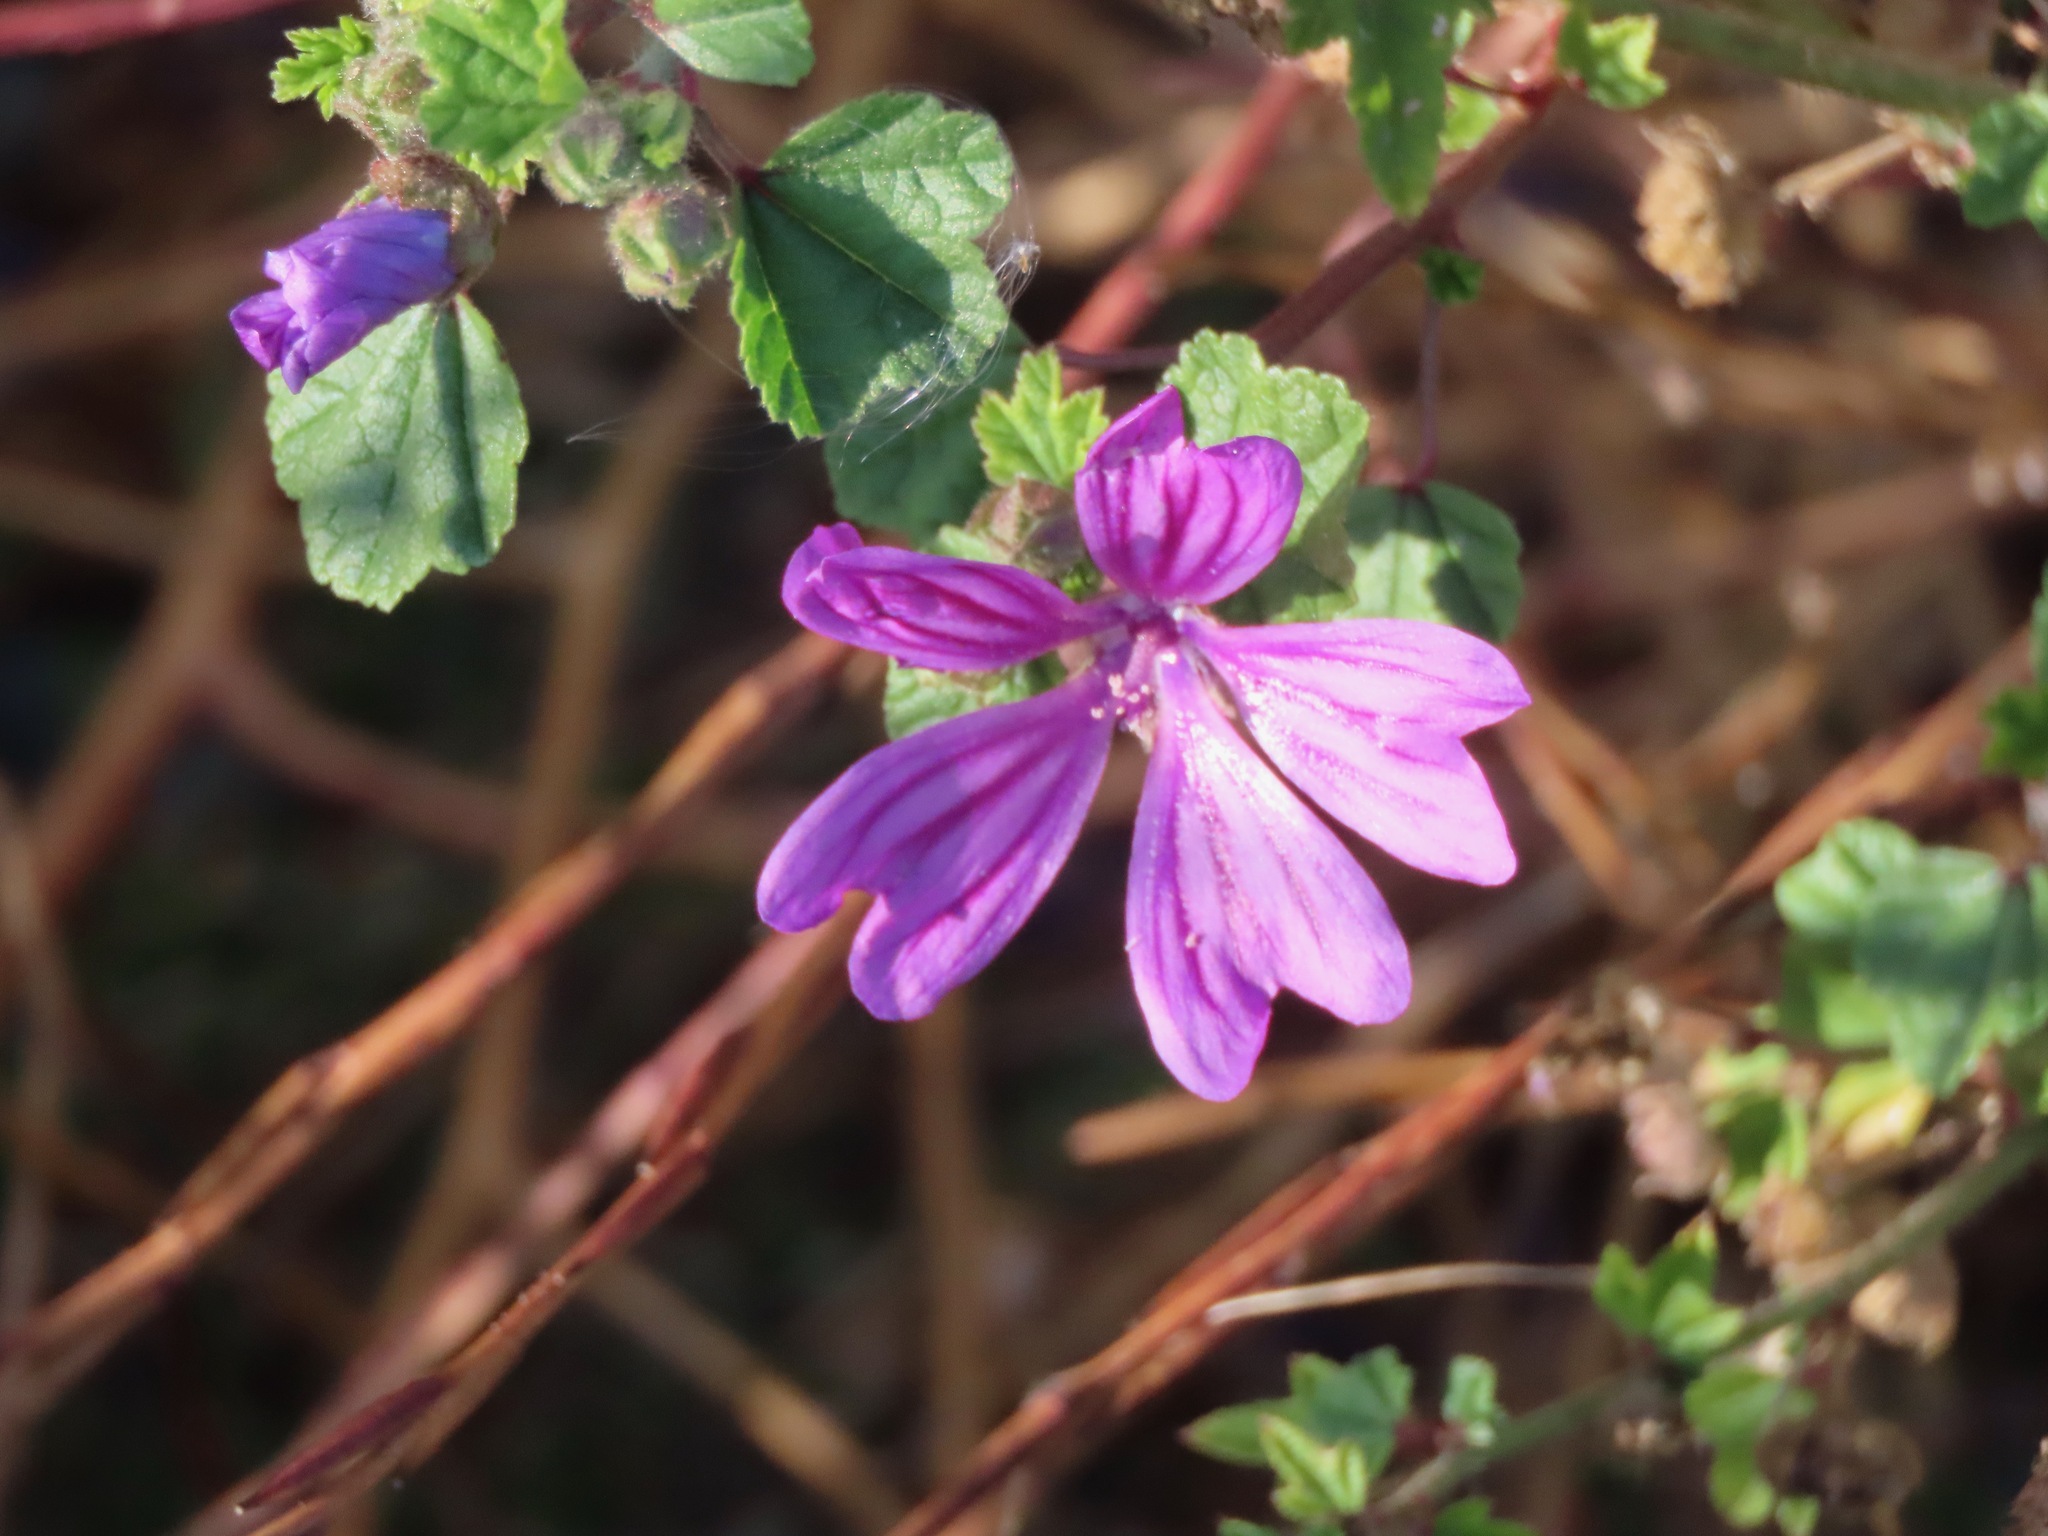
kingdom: Plantae
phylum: Tracheophyta
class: Magnoliopsida
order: Malvales
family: Malvaceae
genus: Malva
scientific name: Malva sylvestris
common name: Common mallow
